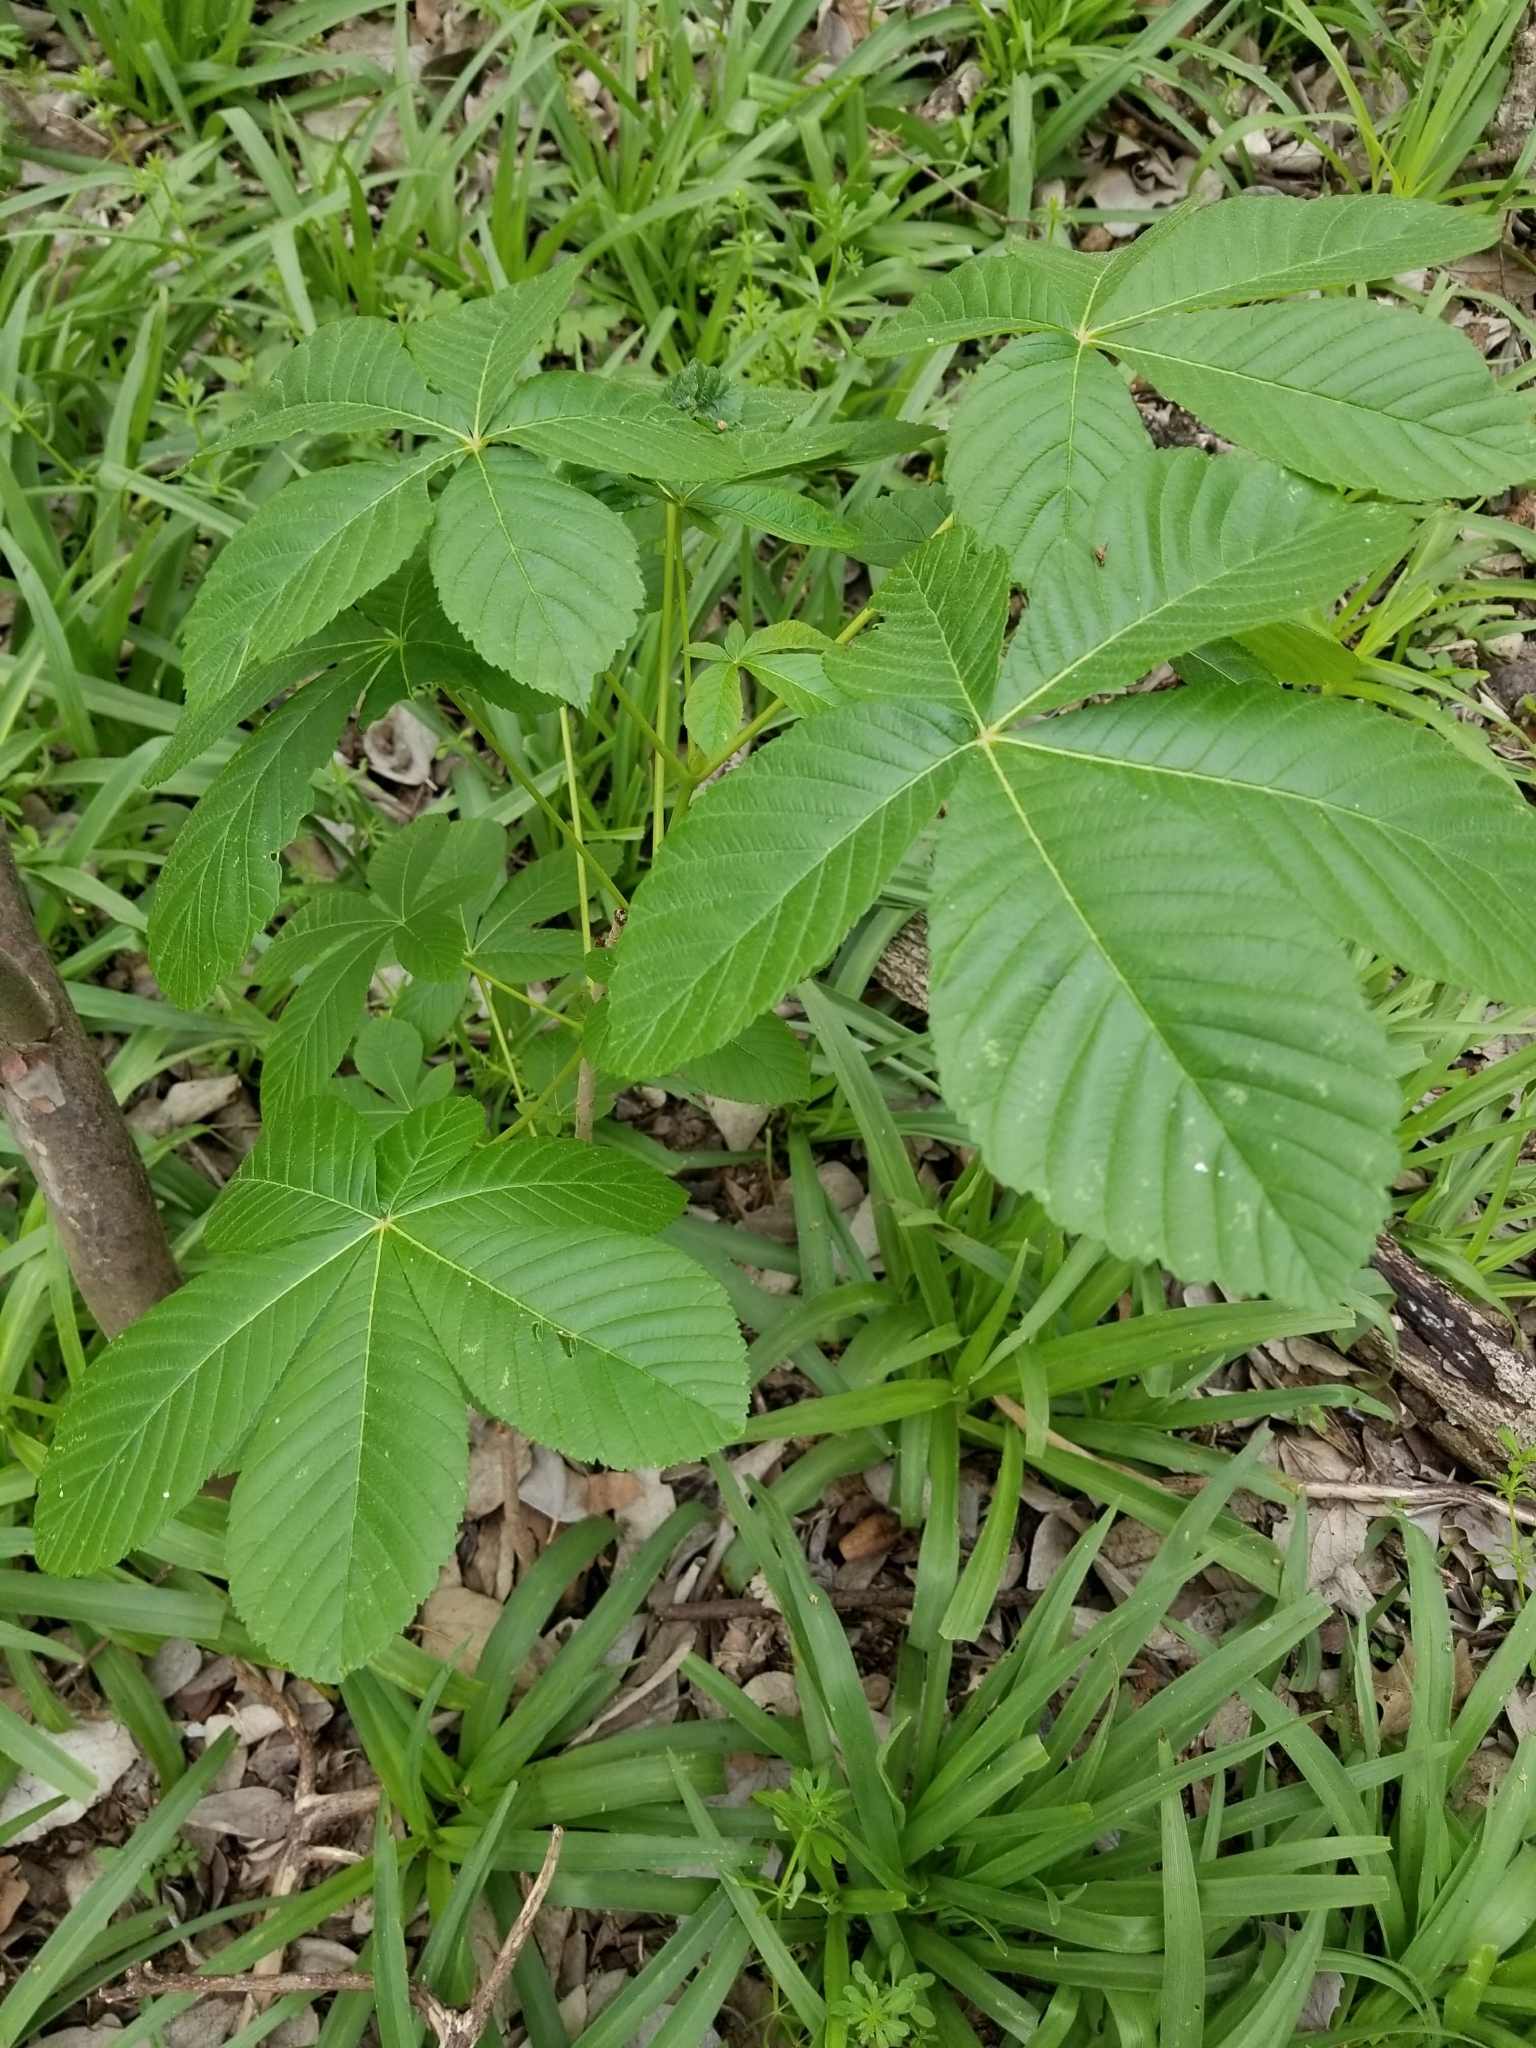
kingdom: Plantae
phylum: Tracheophyta
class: Magnoliopsida
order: Sapindales
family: Sapindaceae
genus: Aesculus
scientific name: Aesculus pavia
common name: Red buckeye
